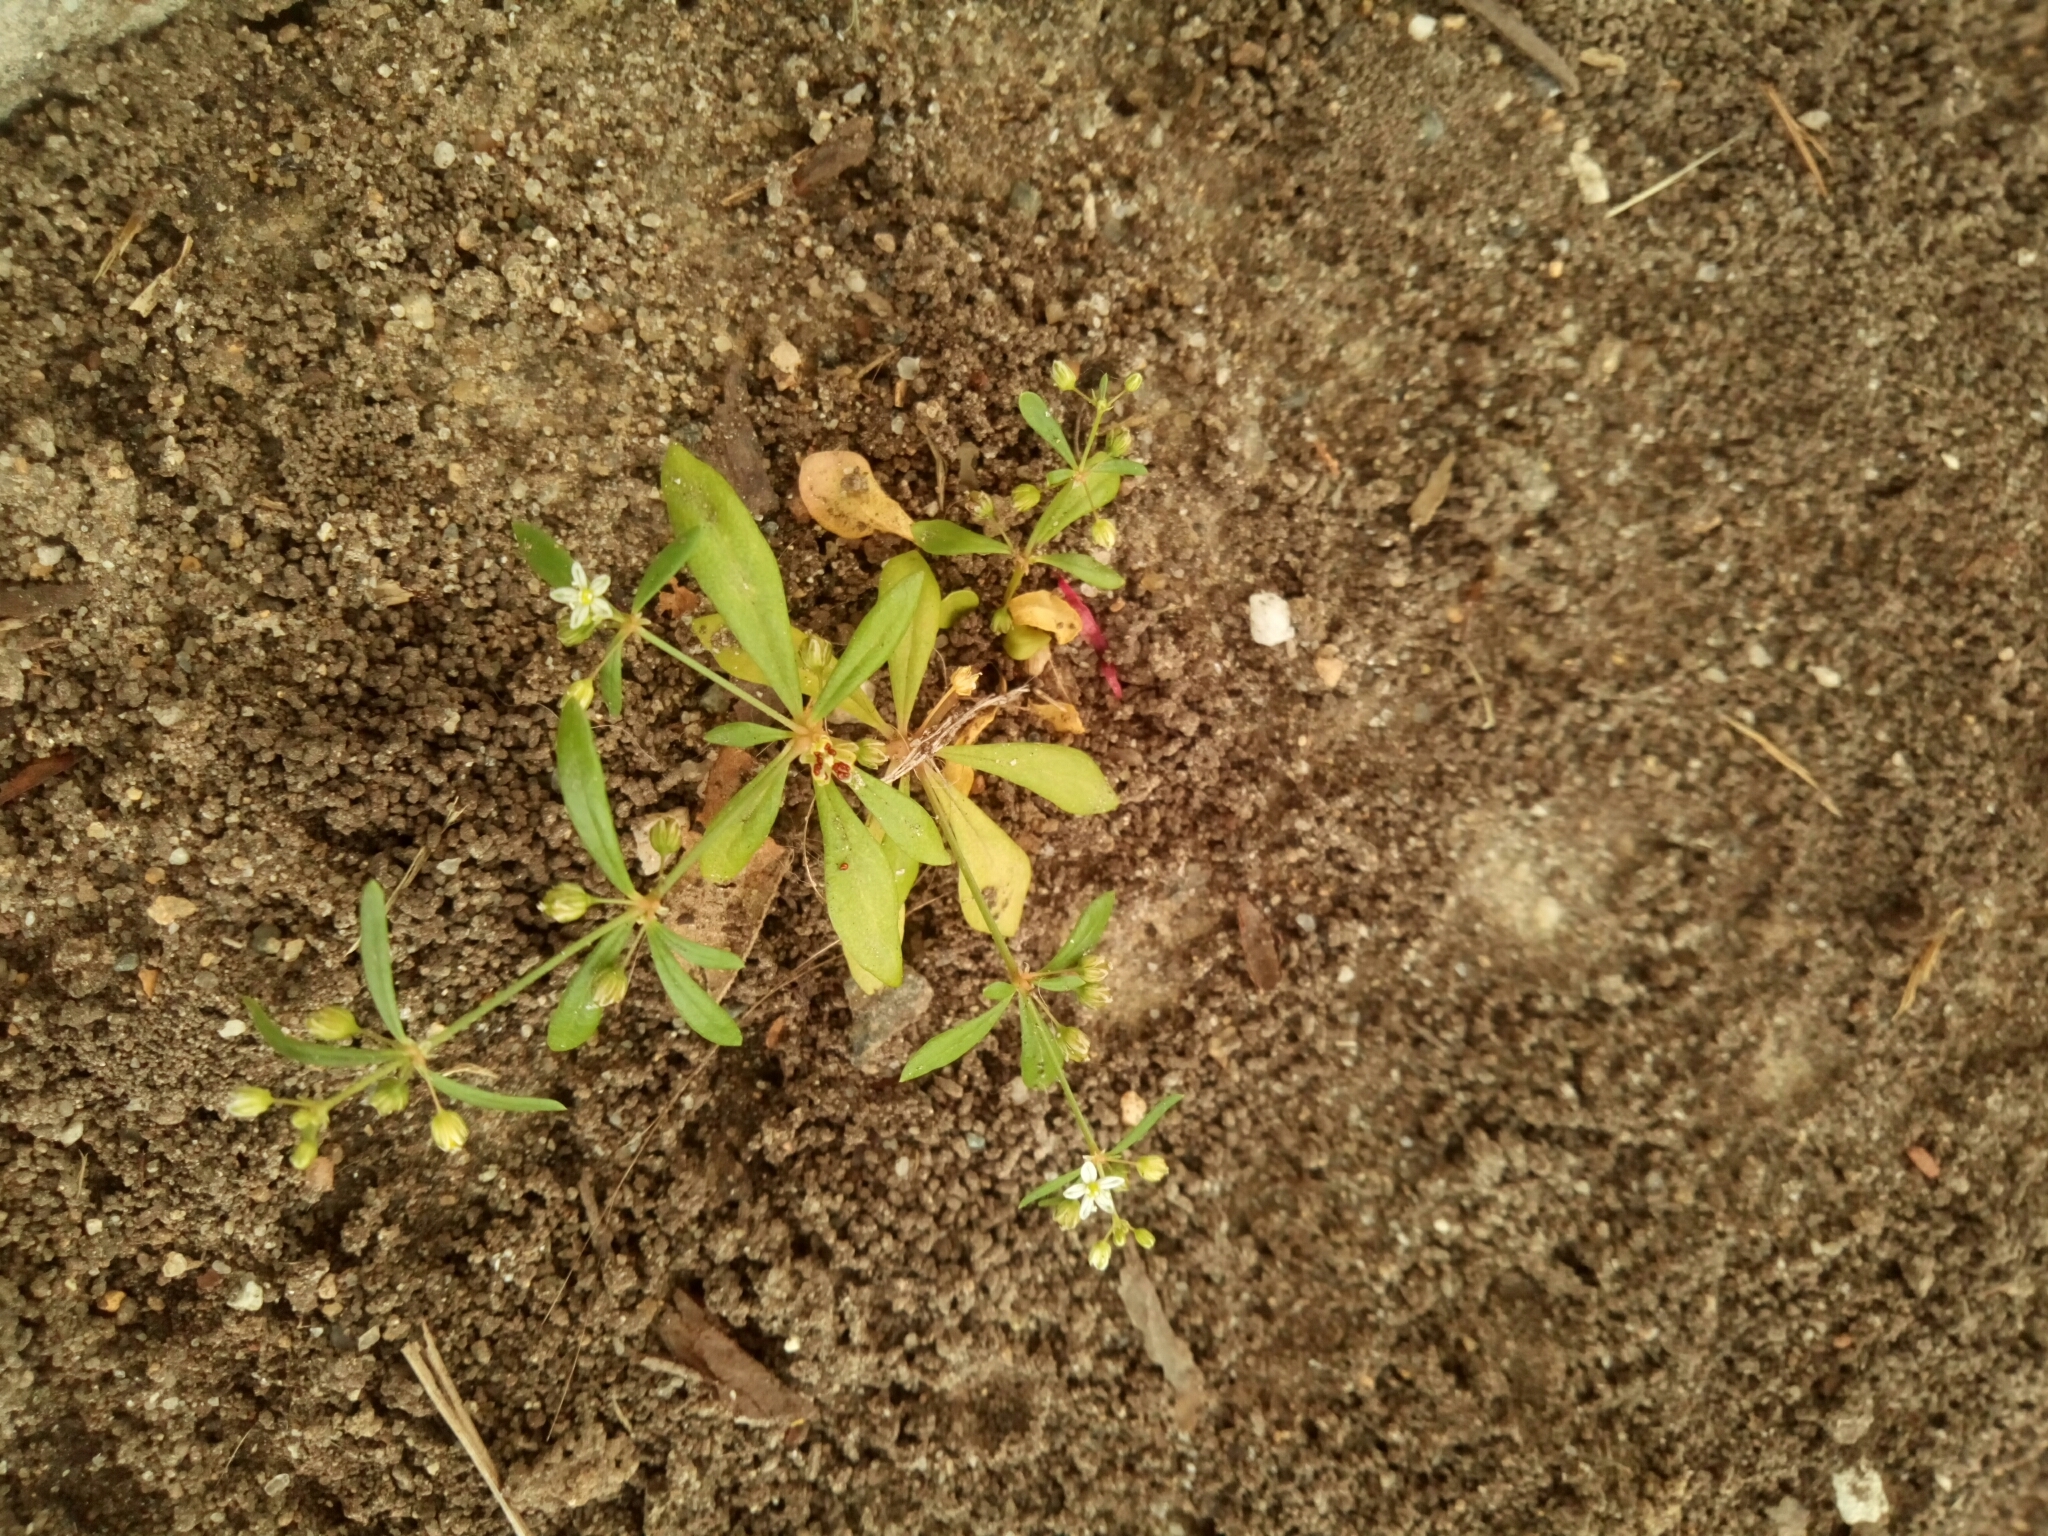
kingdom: Plantae
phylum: Tracheophyta
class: Magnoliopsida
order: Caryophyllales
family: Molluginaceae
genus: Mollugo
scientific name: Mollugo verticillata
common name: Green carpetweed
